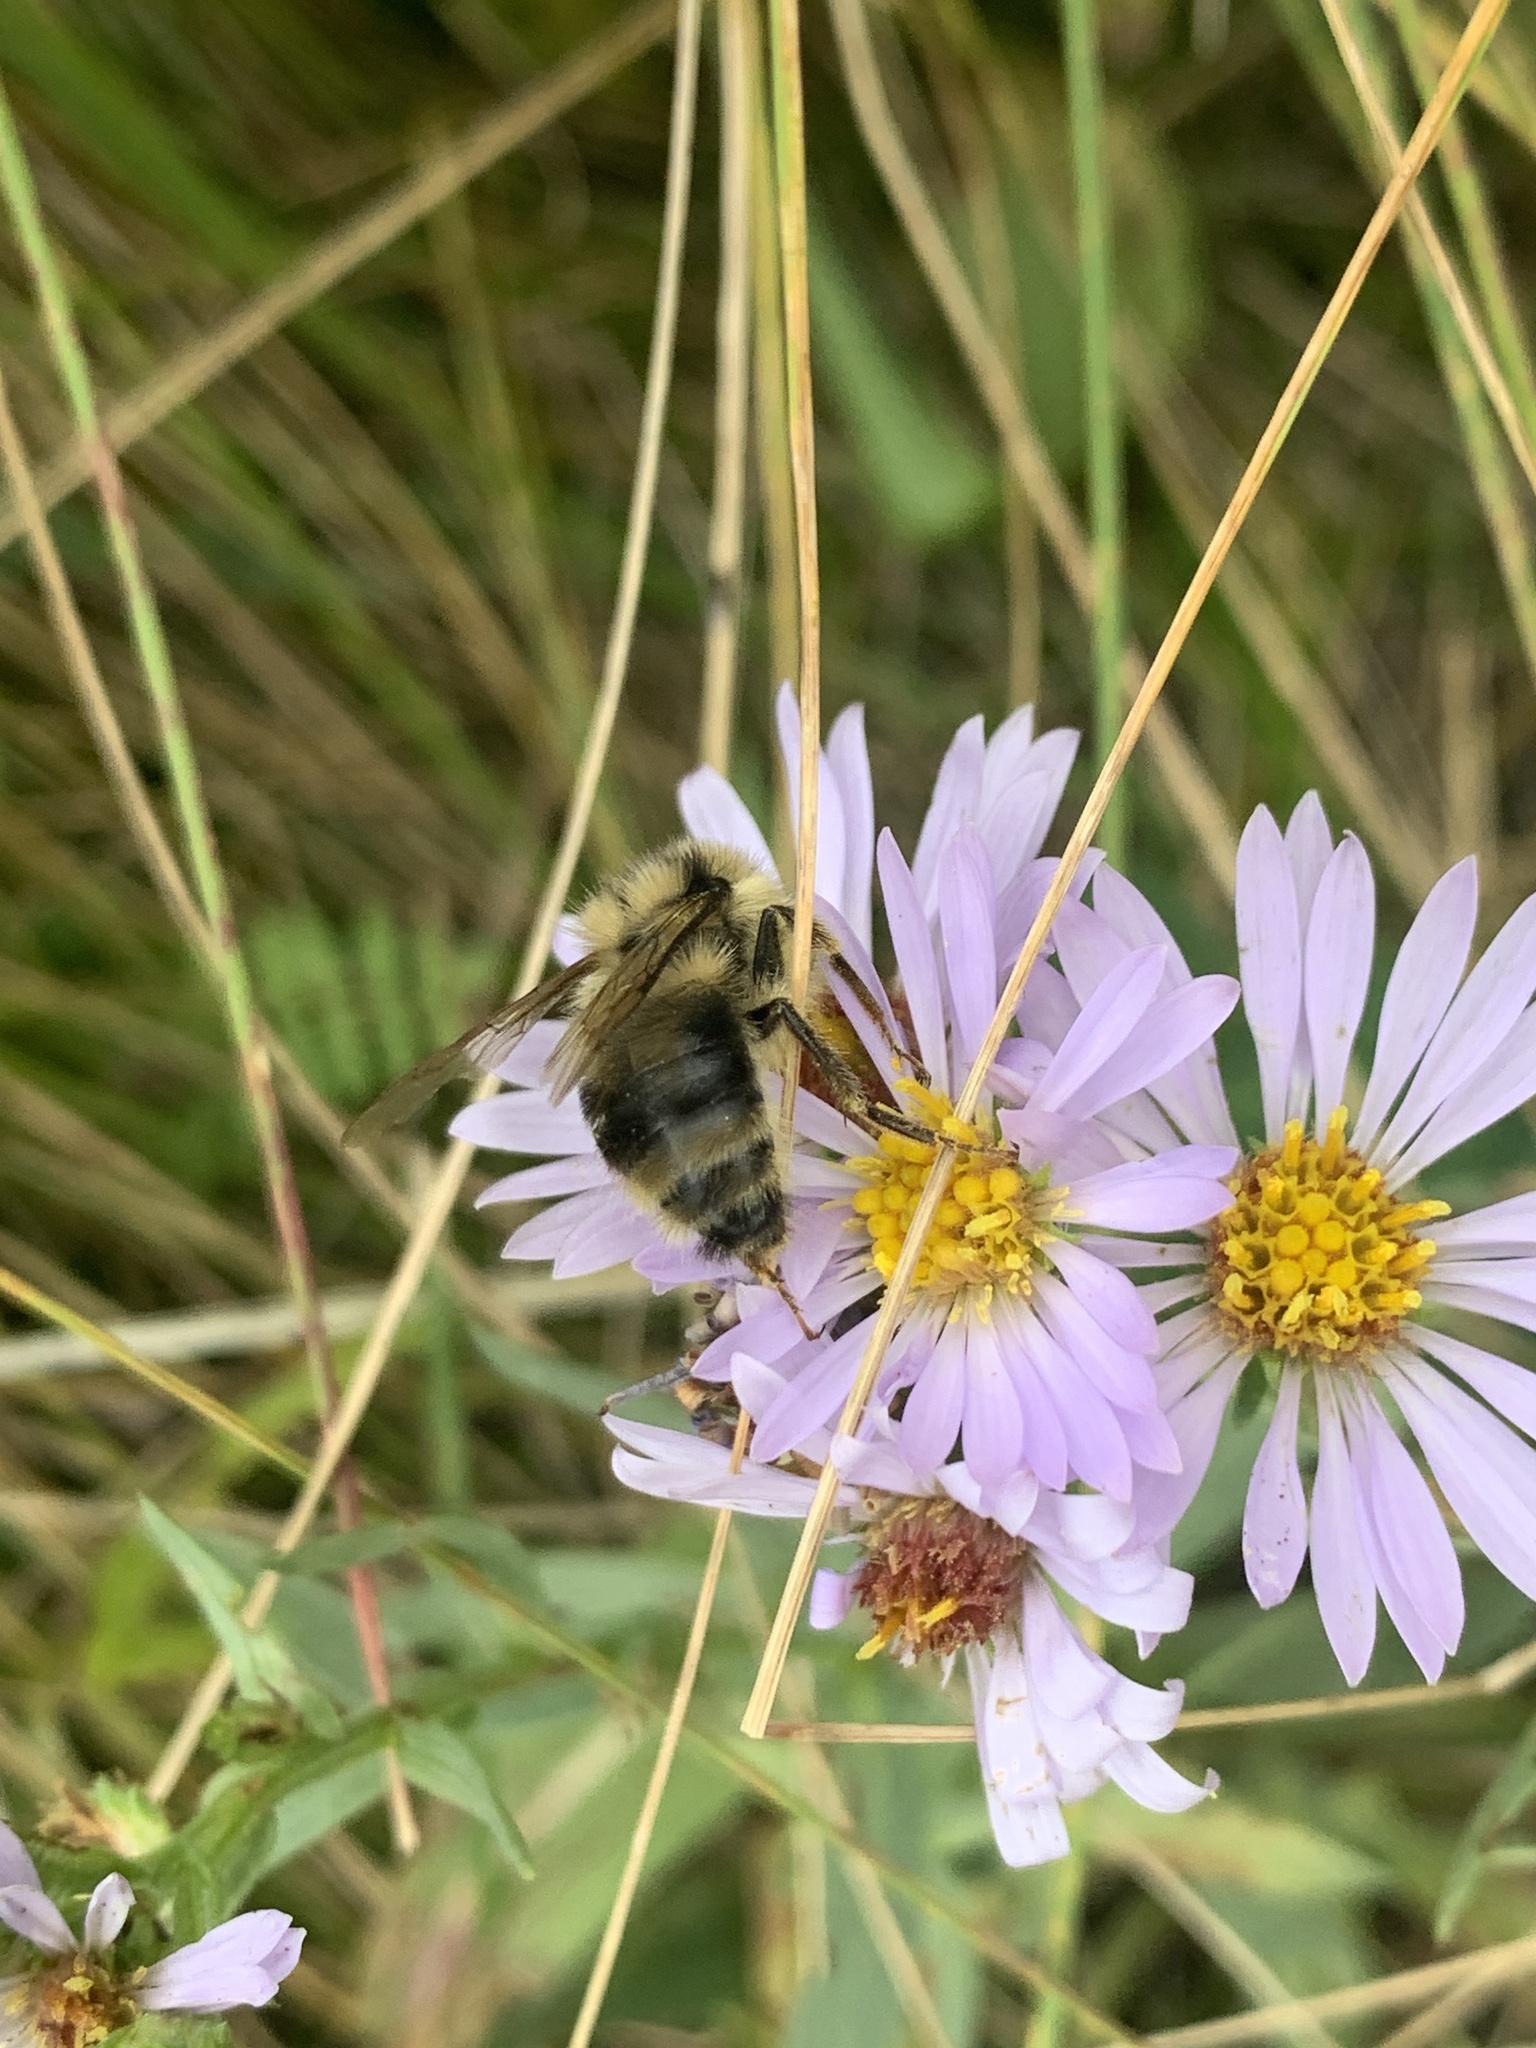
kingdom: Animalia
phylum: Arthropoda
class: Insecta
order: Hymenoptera
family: Apidae
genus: Bombus
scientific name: Bombus vancouverensis
